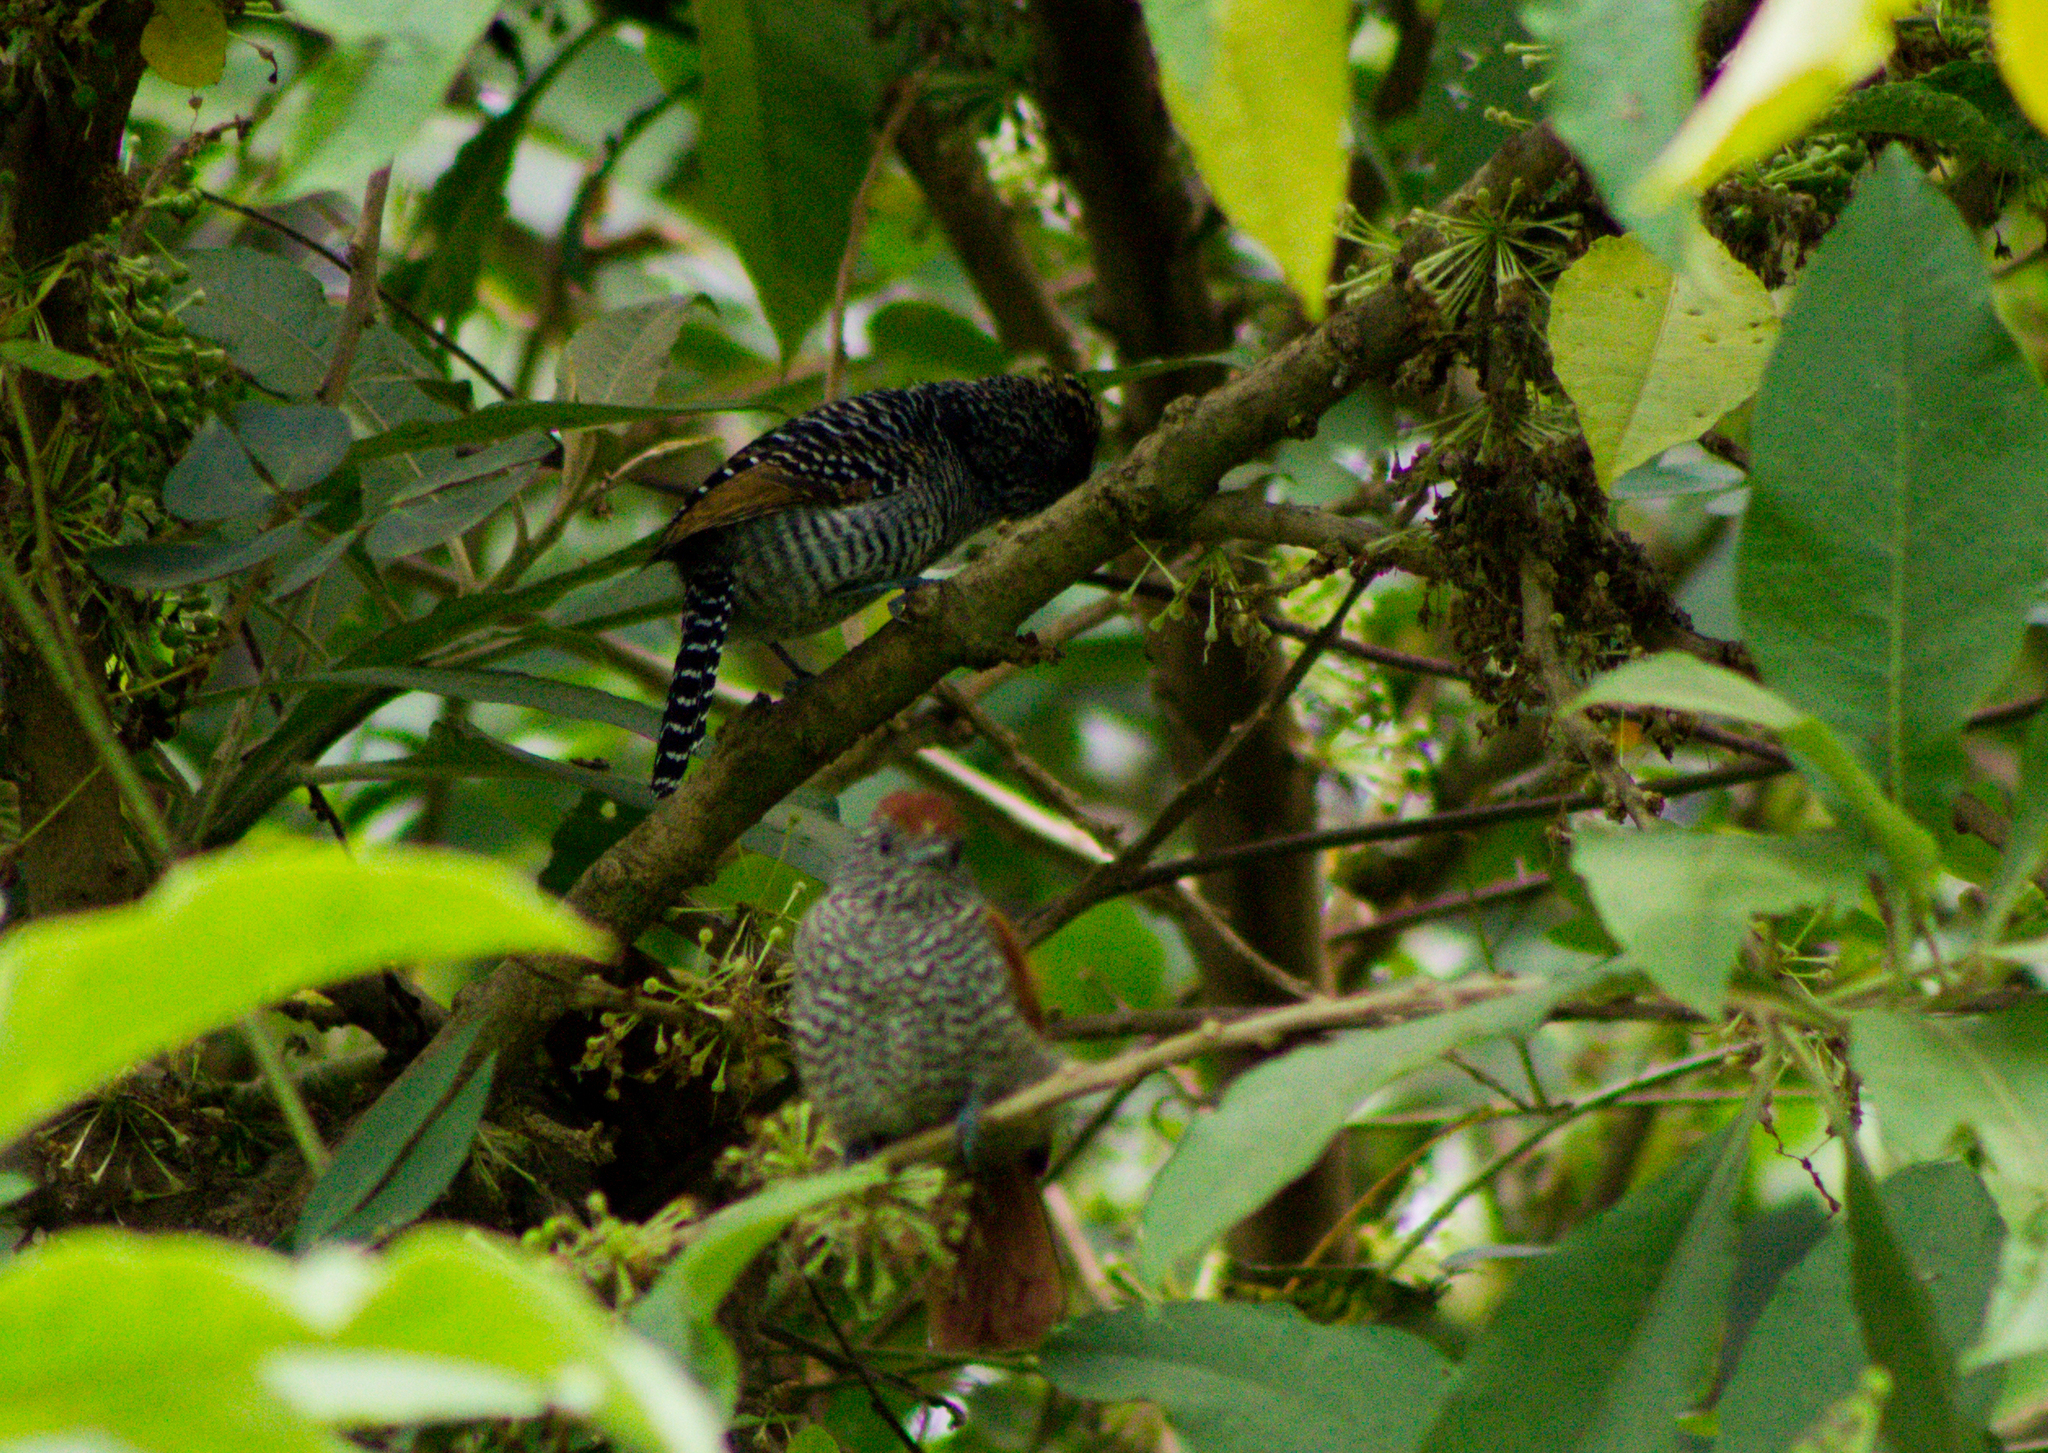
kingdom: Animalia
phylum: Chordata
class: Aves
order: Passeriformes
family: Thamnophilidae
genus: Thamnophilus
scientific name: Thamnophilus multistriatus
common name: Bar-crested antshrike
